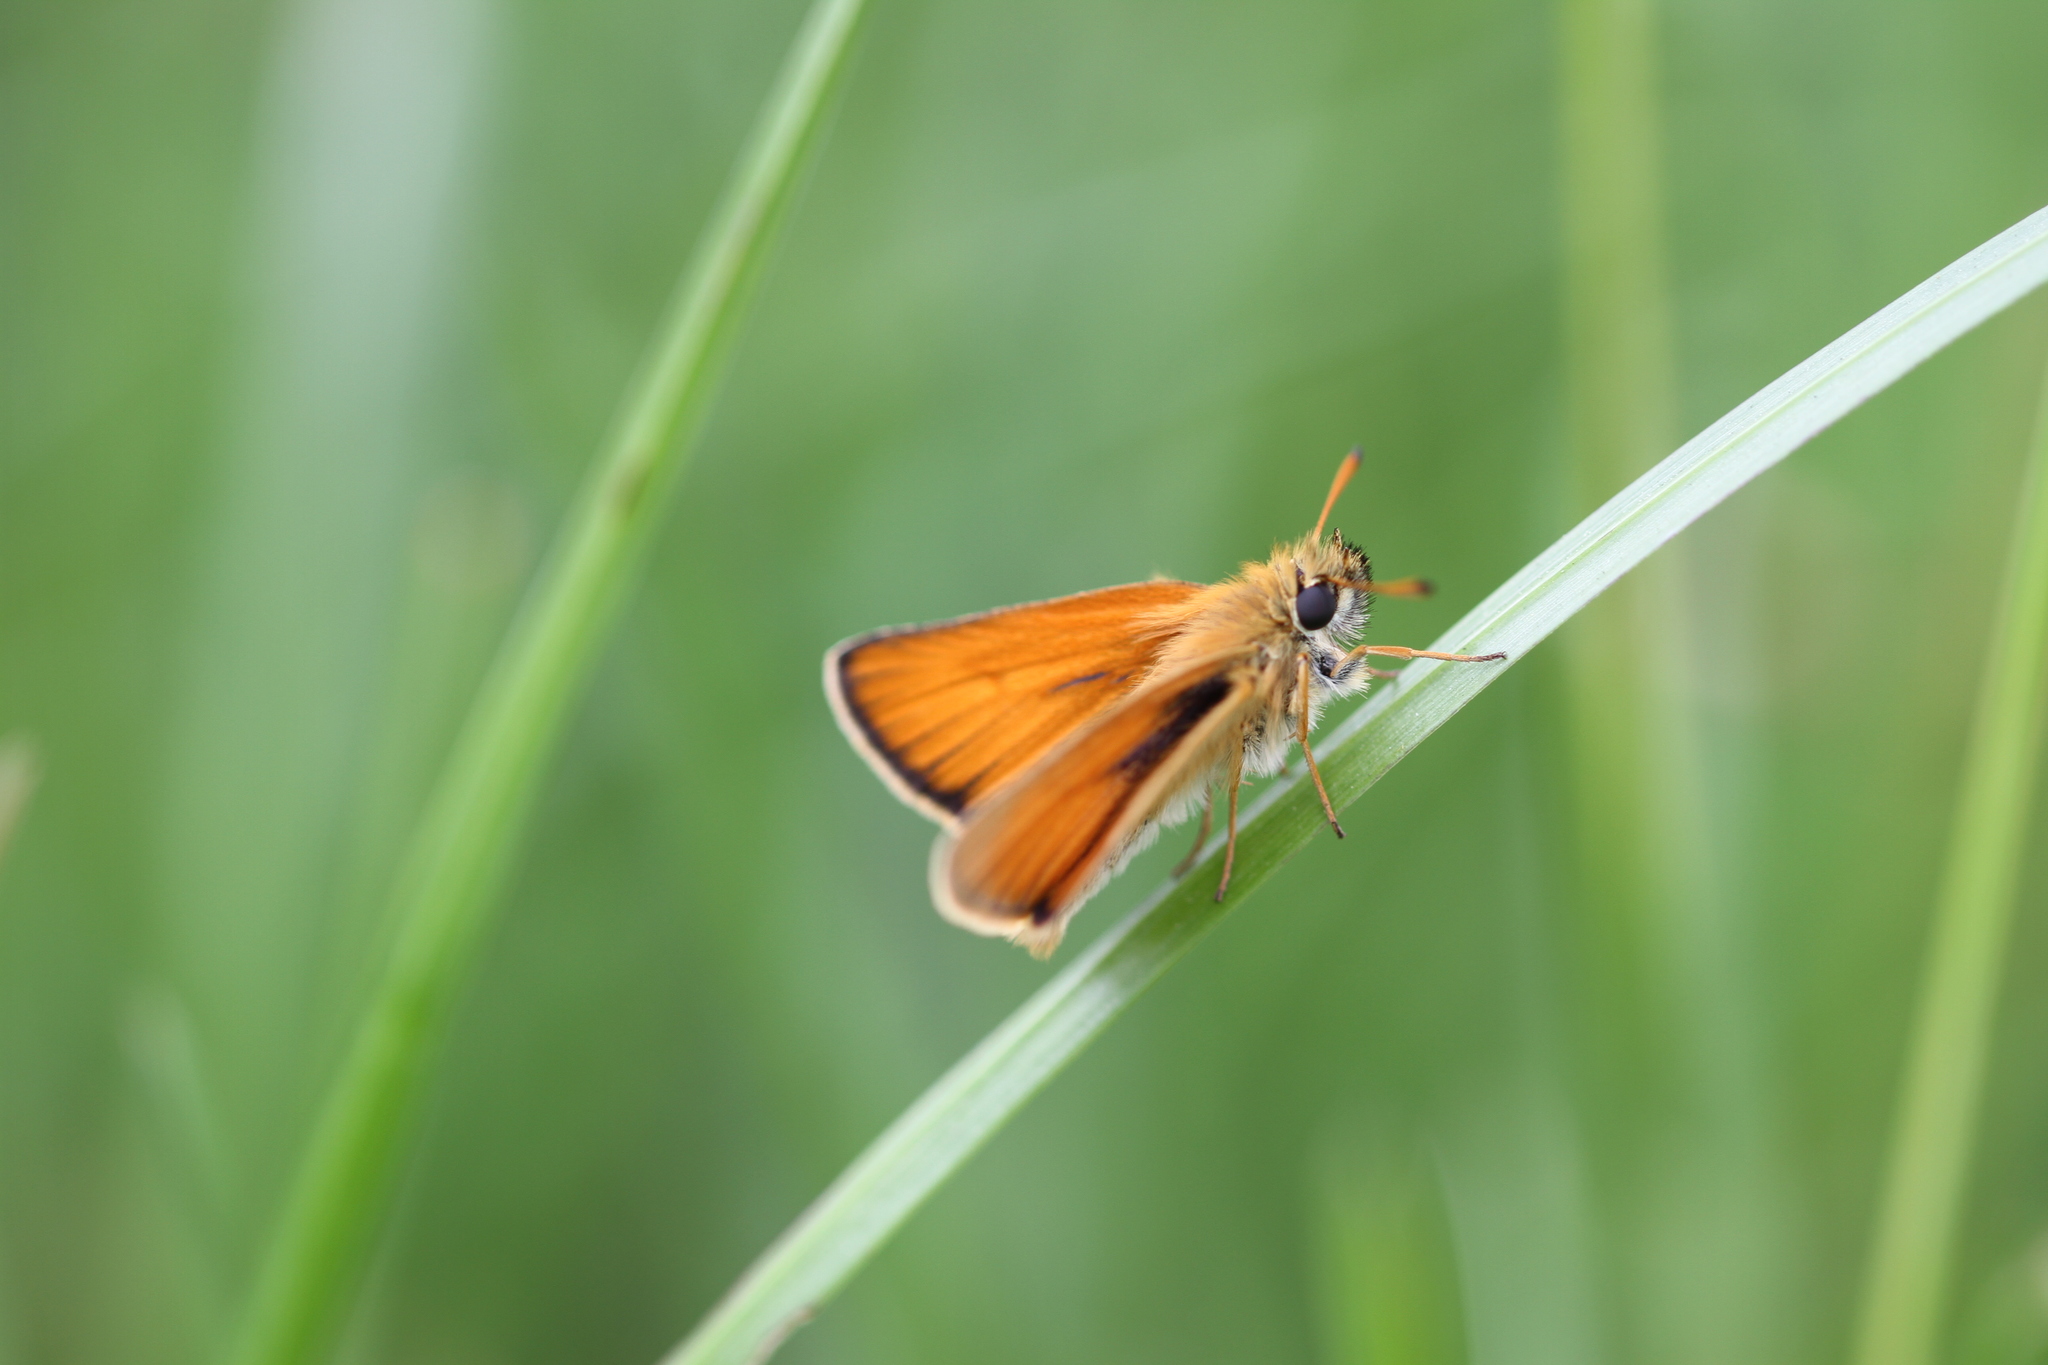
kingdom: Animalia
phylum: Arthropoda
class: Insecta
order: Lepidoptera
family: Hesperiidae
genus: Thymelicus
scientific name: Thymelicus lineola
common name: Essex skipper
